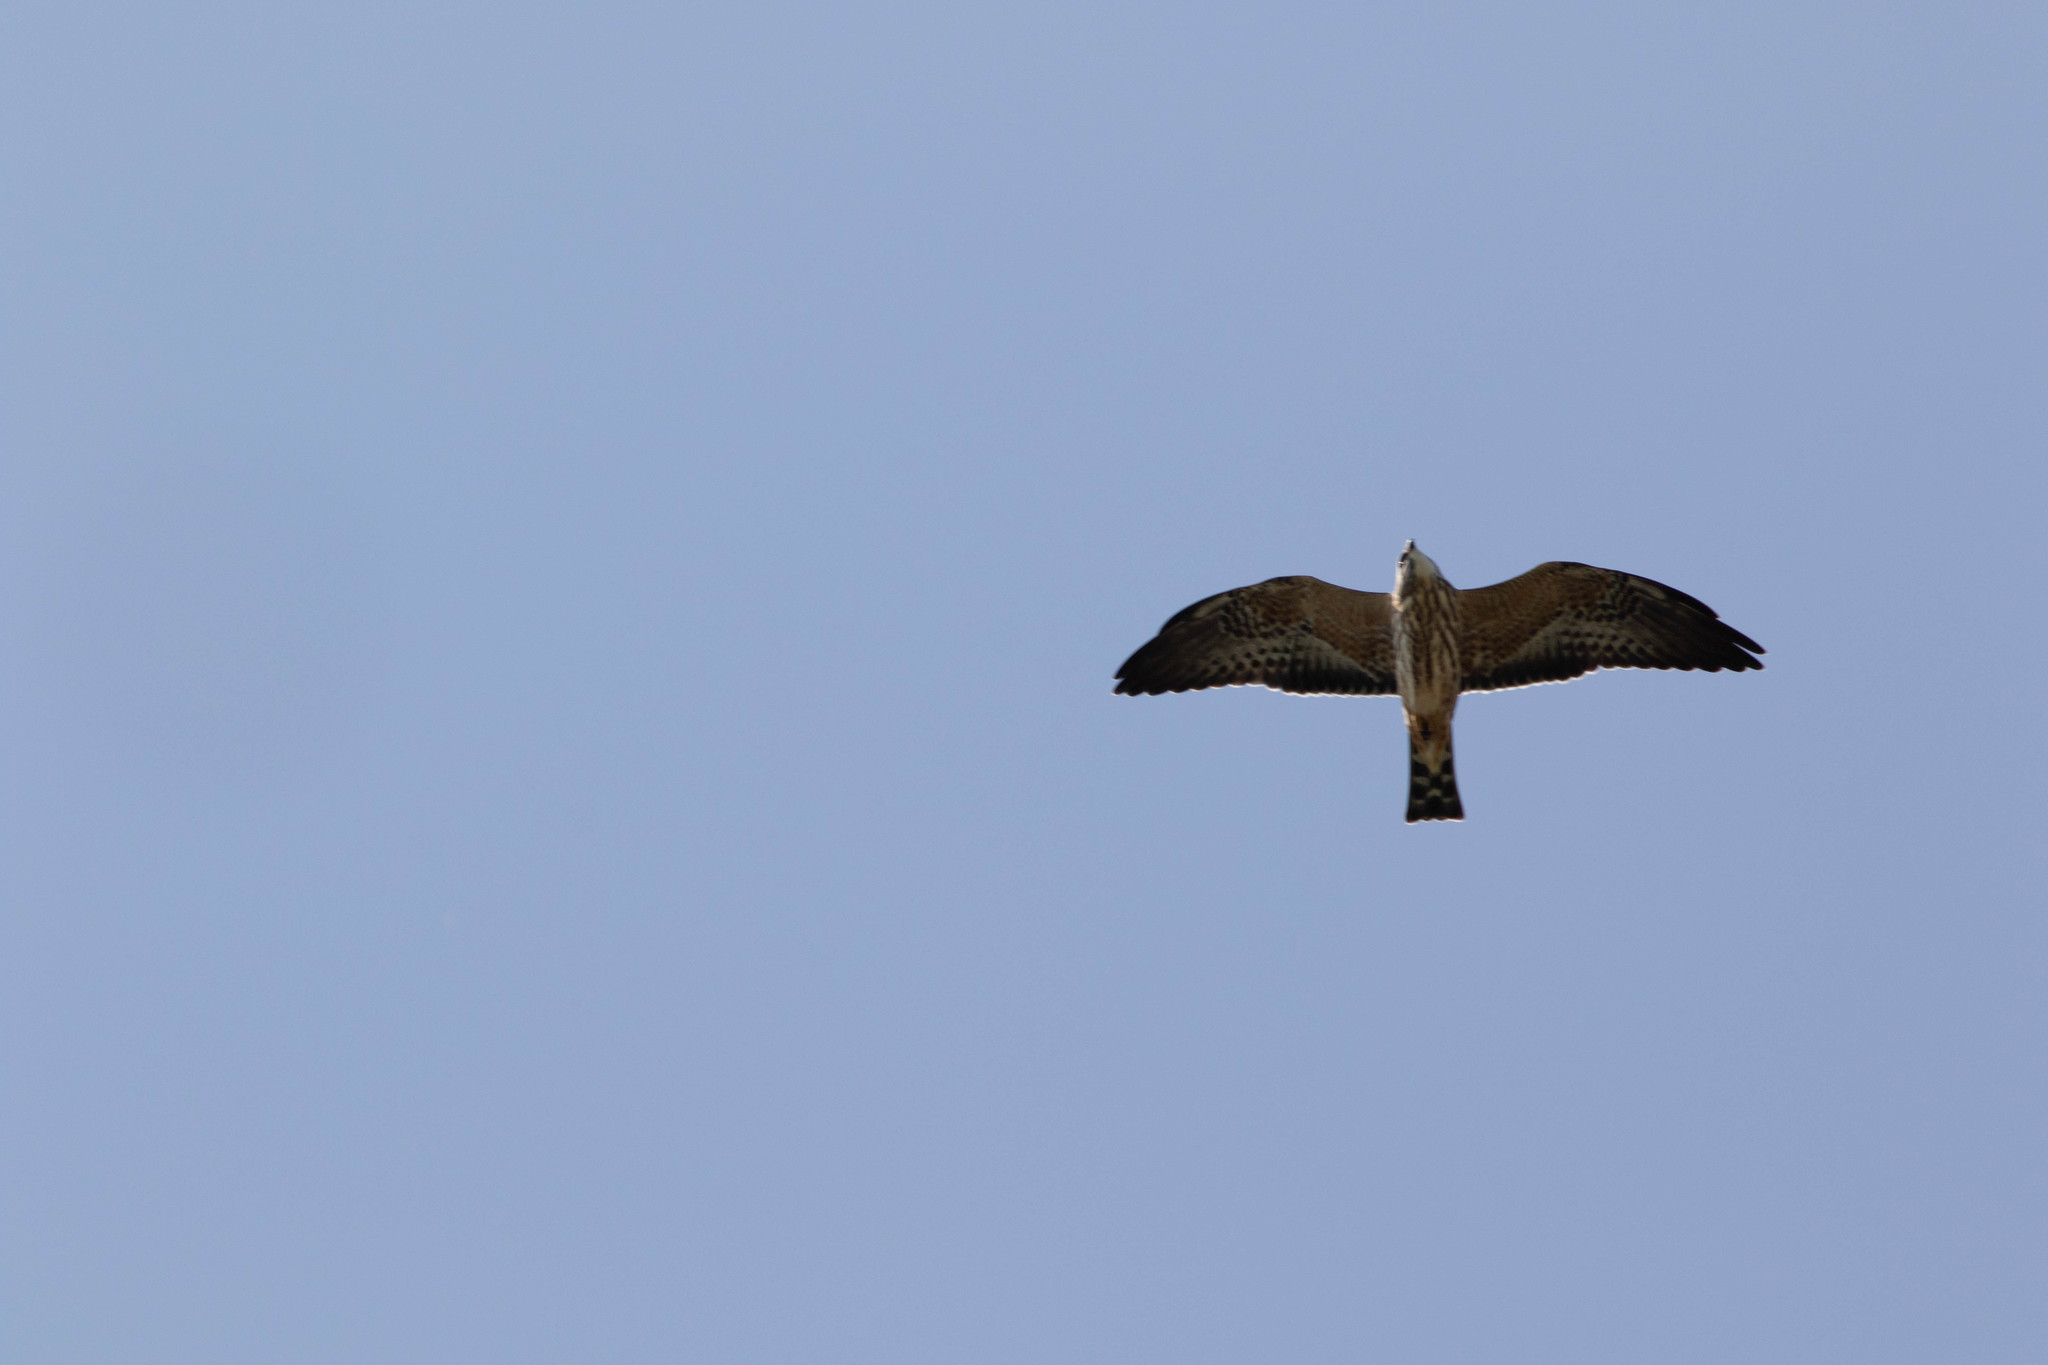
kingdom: Animalia
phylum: Chordata
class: Aves
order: Accipitriformes
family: Accipitridae
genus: Ictinia
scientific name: Ictinia mississippiensis
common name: Mississippi kite
